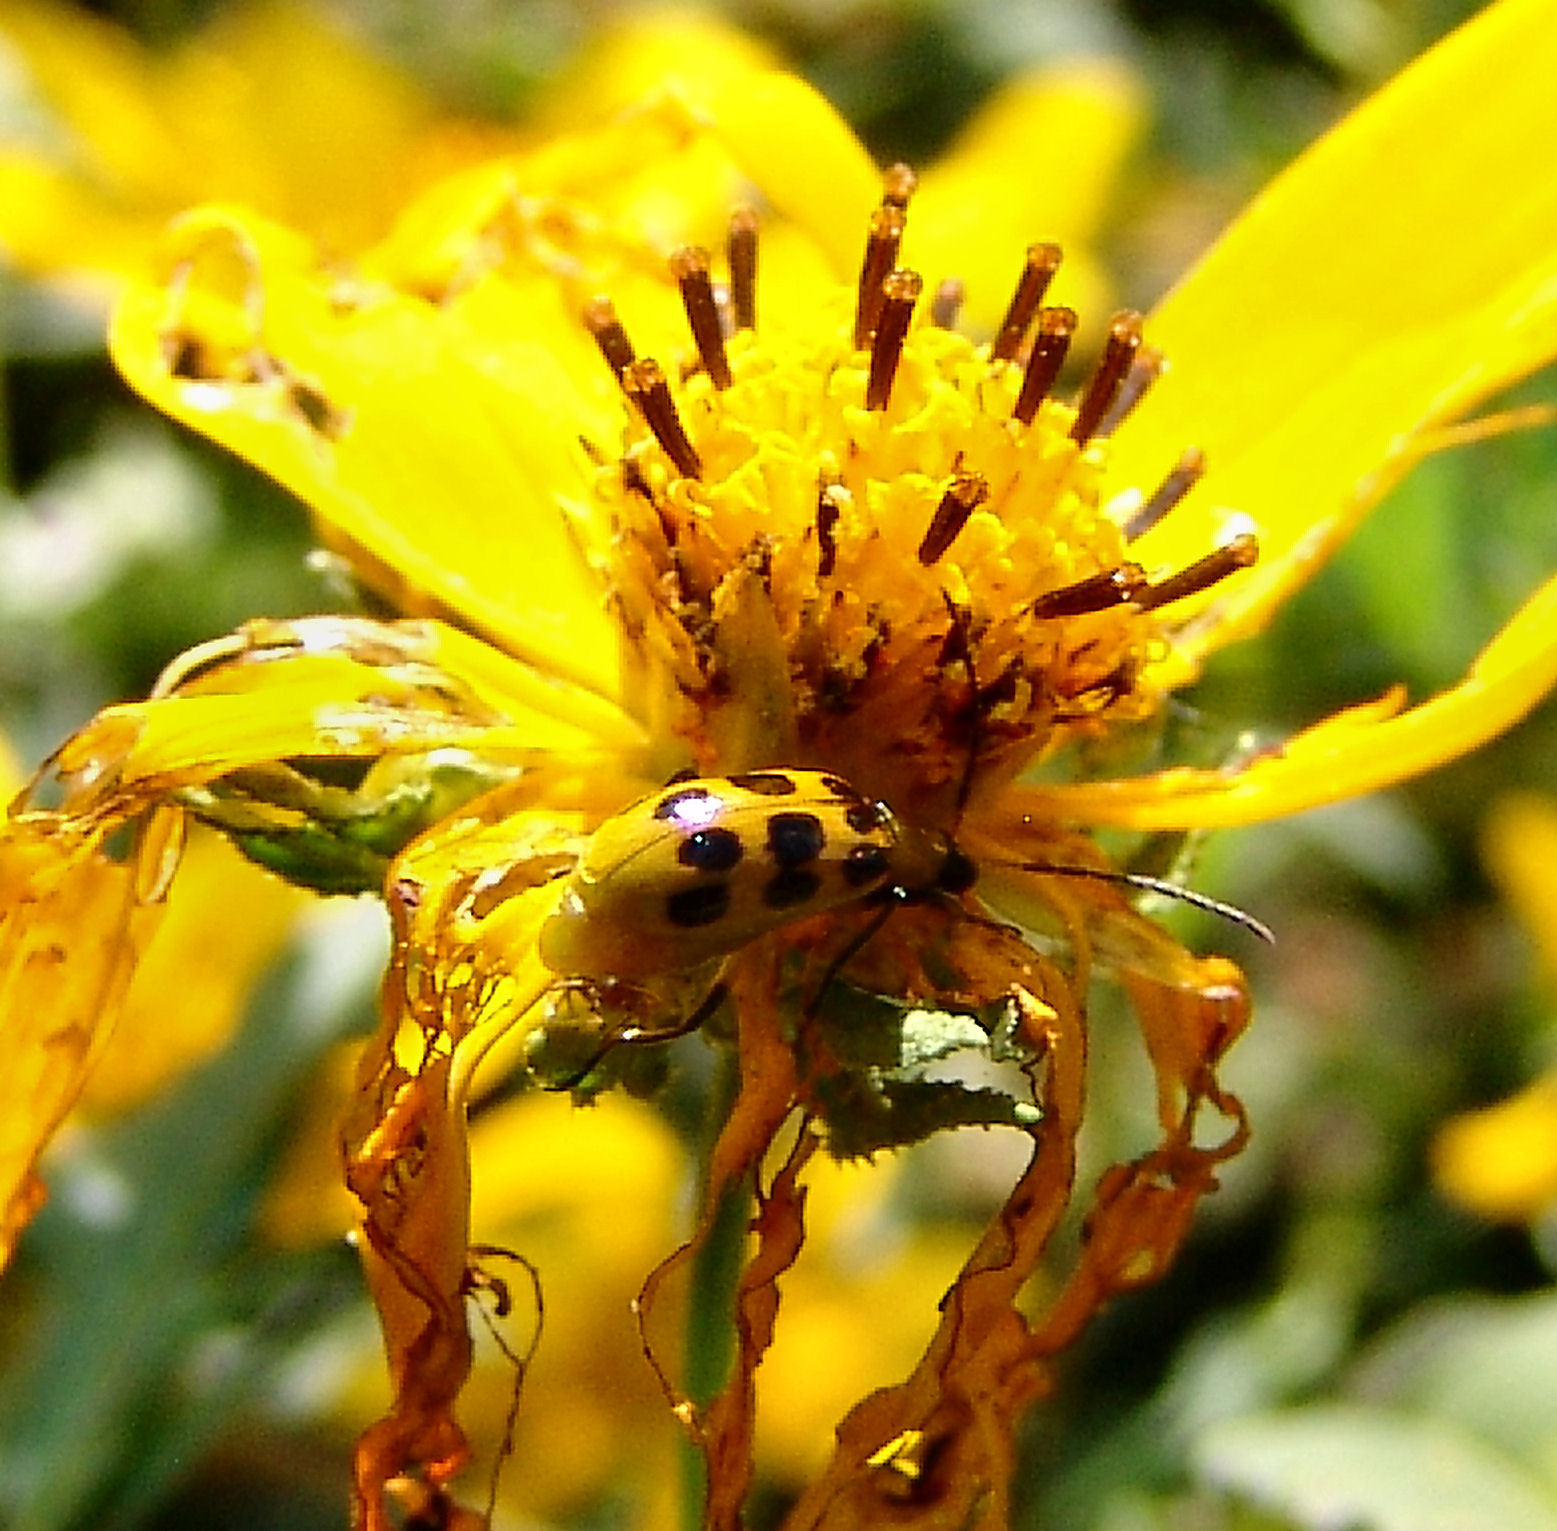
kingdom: Animalia
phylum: Arthropoda
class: Insecta
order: Coleoptera
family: Chrysomelidae
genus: Diabrotica
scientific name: Diabrotica undecimpunctata
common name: Spotted cucumber beetle
